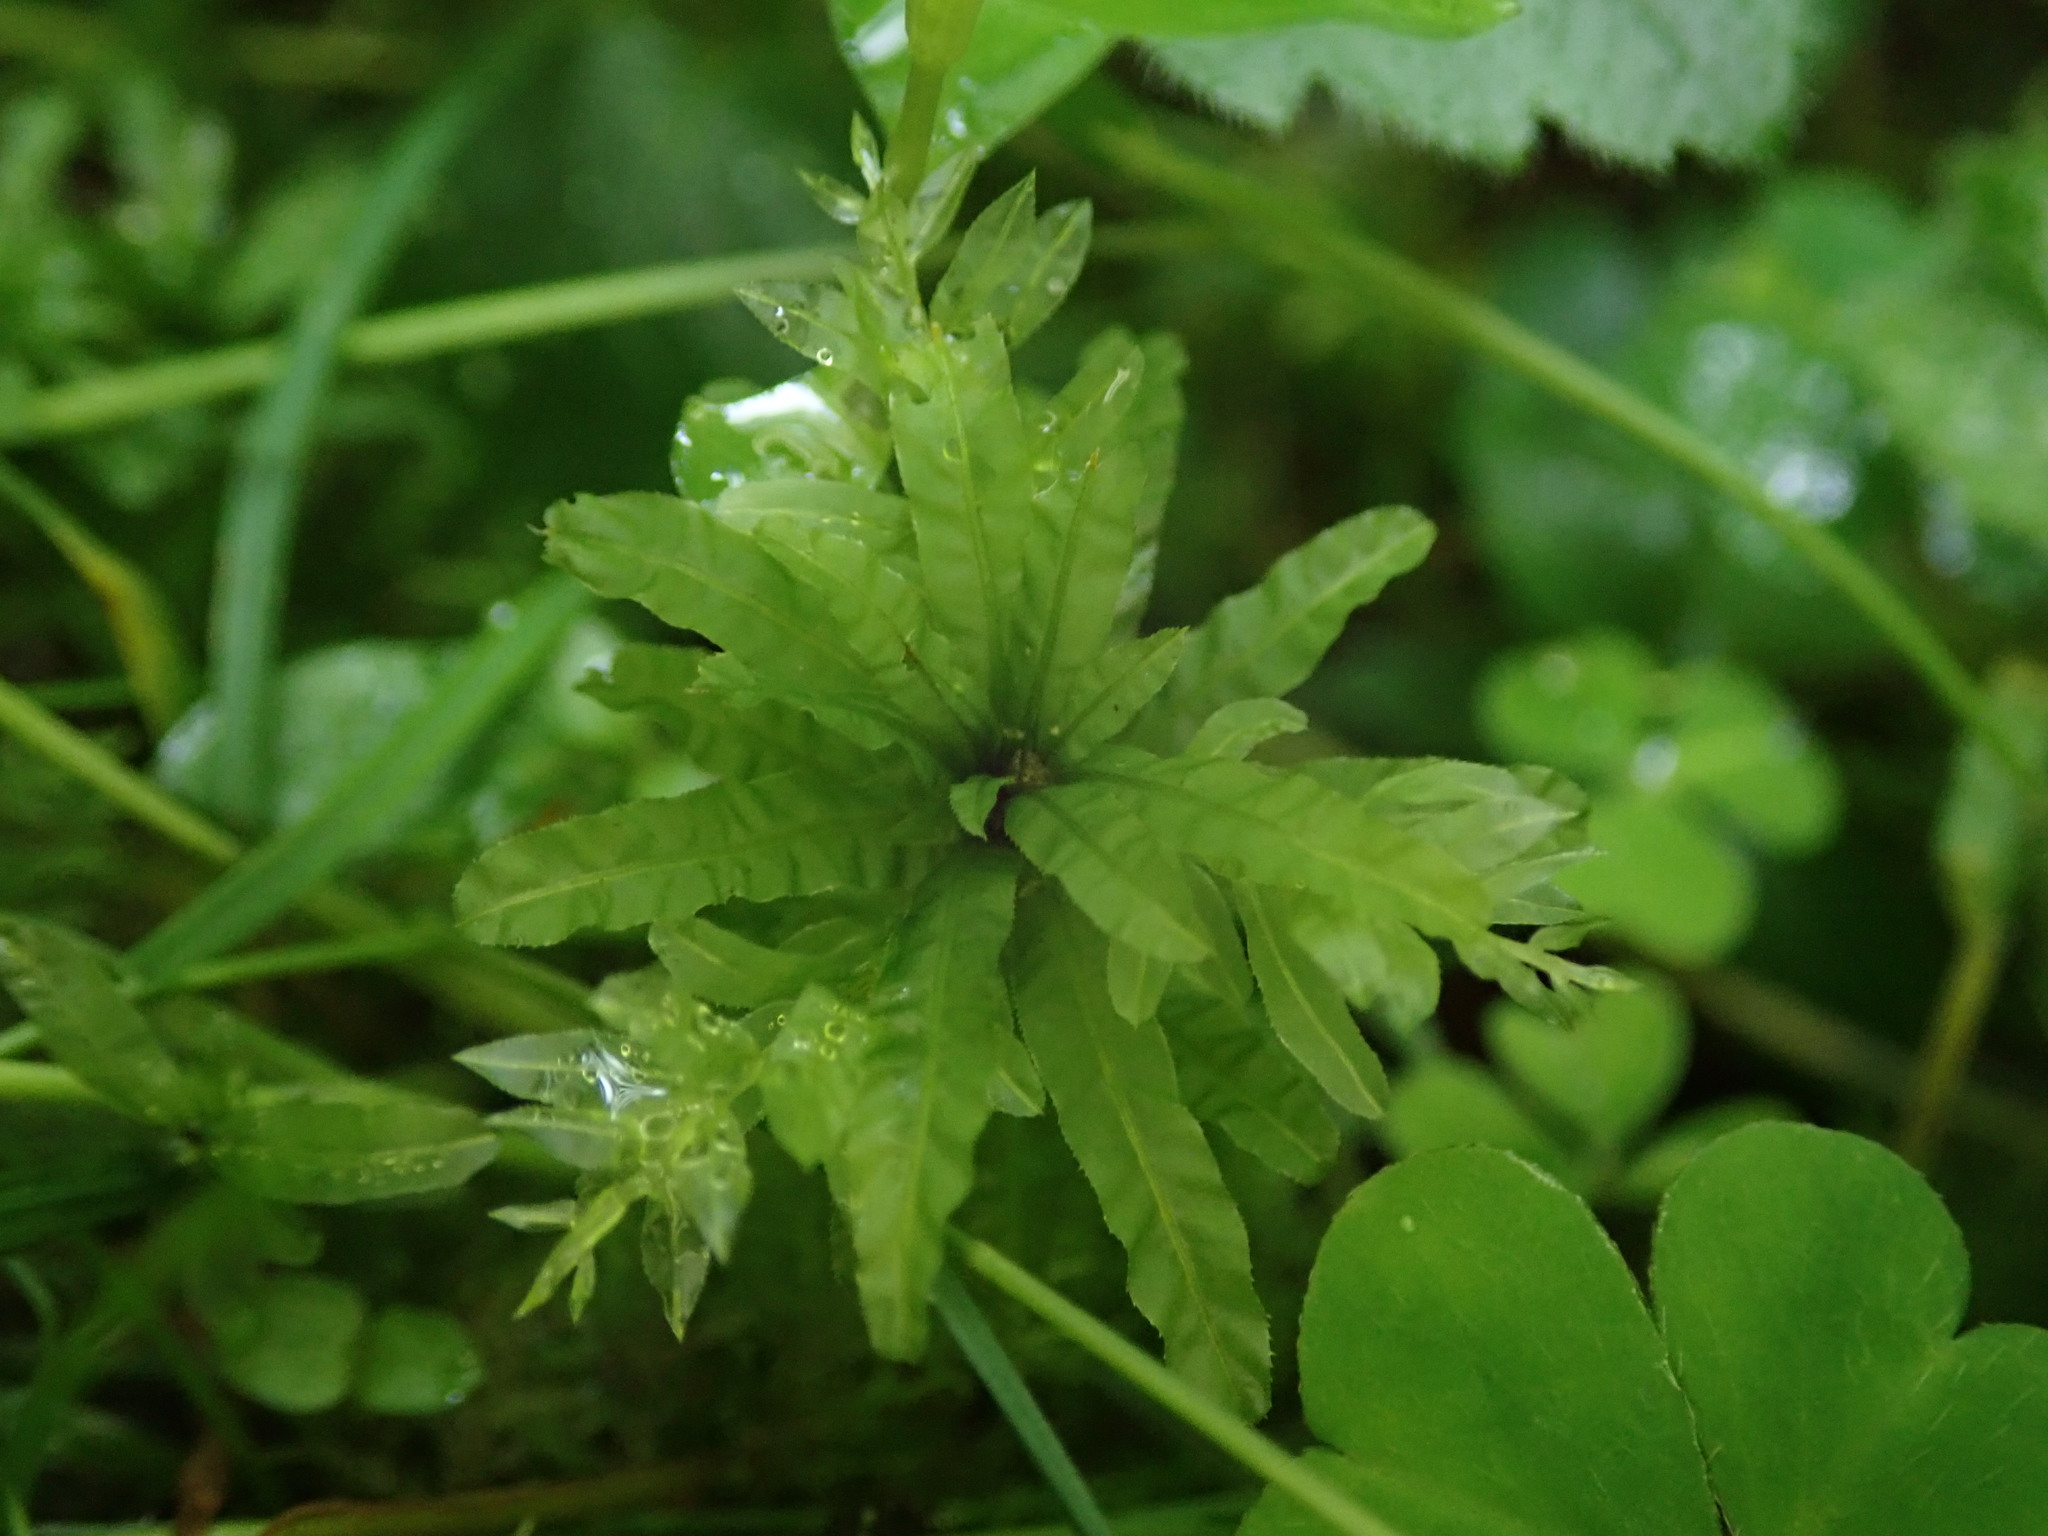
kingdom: Plantae
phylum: Bryophyta
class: Bryopsida
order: Bryales
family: Mniaceae
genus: Plagiomnium
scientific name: Plagiomnium undulatum
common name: Hart's-tongue thyme-moss
